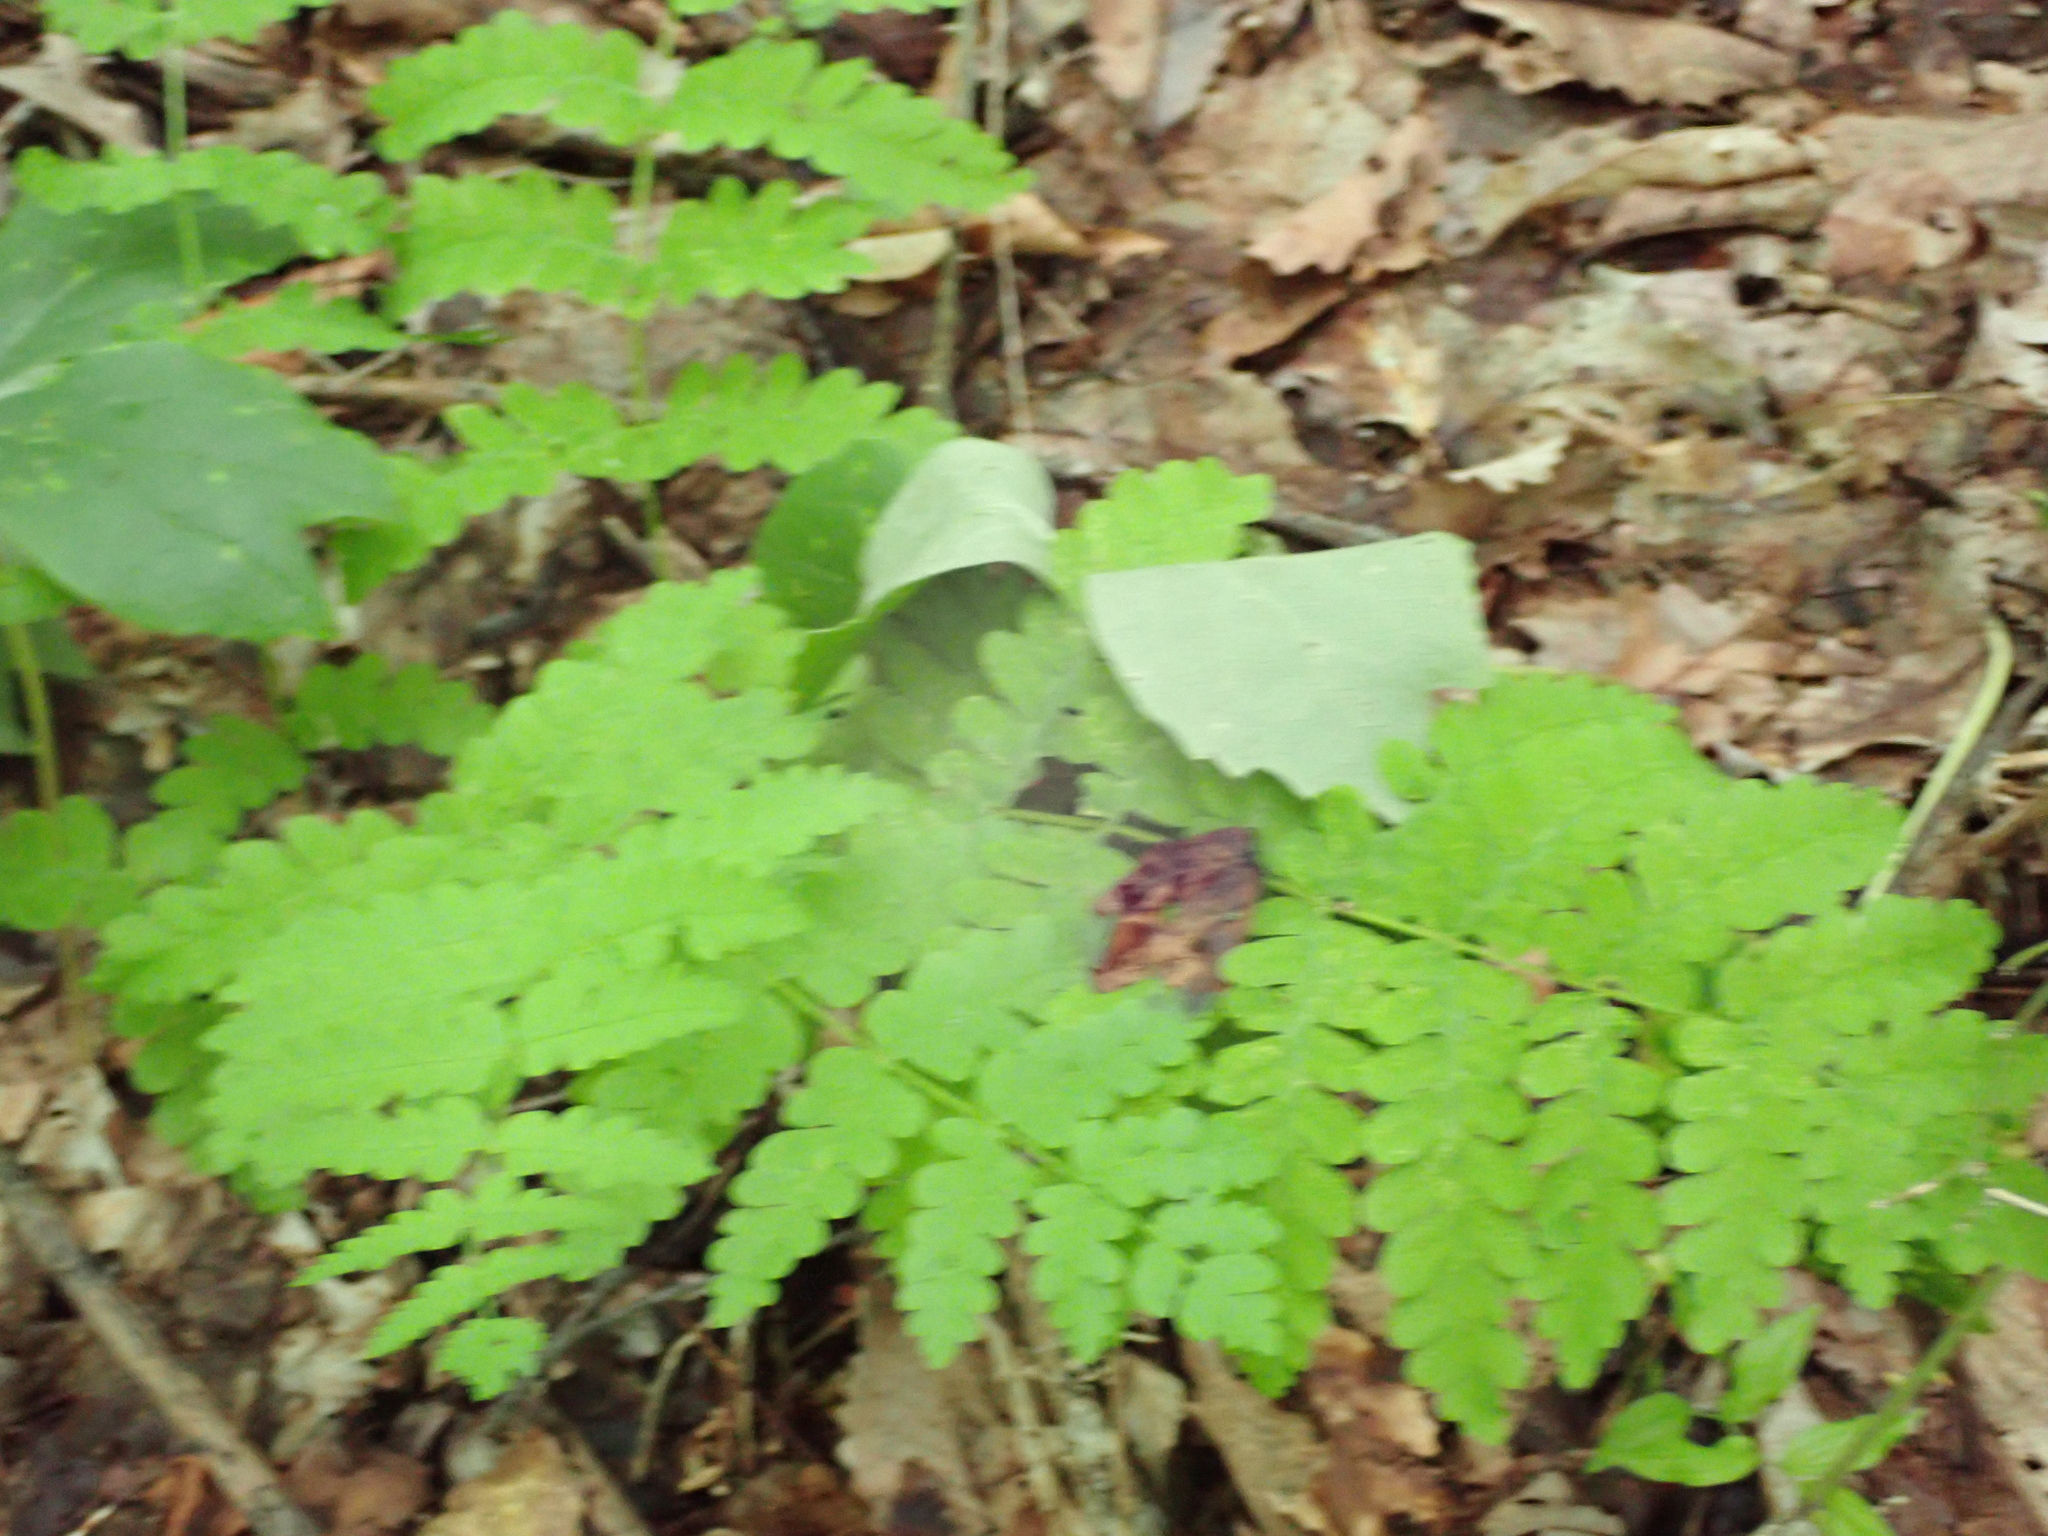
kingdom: Plantae
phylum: Tracheophyta
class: Polypodiopsida
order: Osmundales
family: Osmundaceae
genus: Claytosmunda
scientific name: Claytosmunda claytoniana
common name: Clayton's fern
